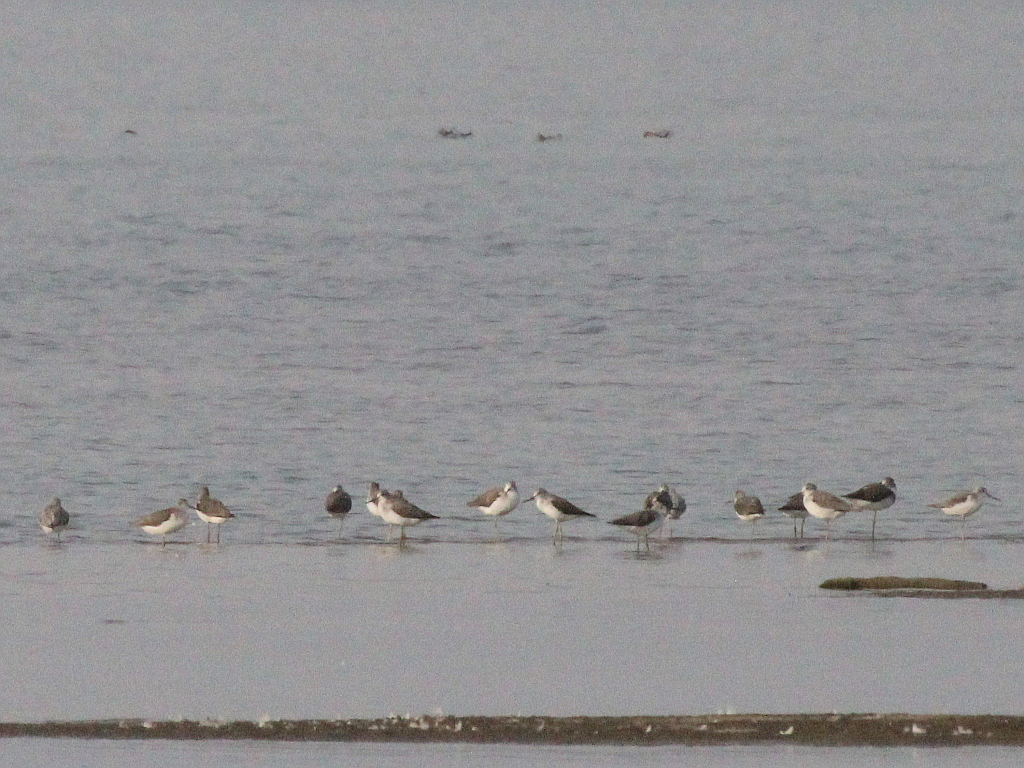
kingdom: Animalia
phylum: Chordata
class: Aves
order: Charadriiformes
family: Scolopacidae
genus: Tringa
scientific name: Tringa nebularia
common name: Common greenshank
